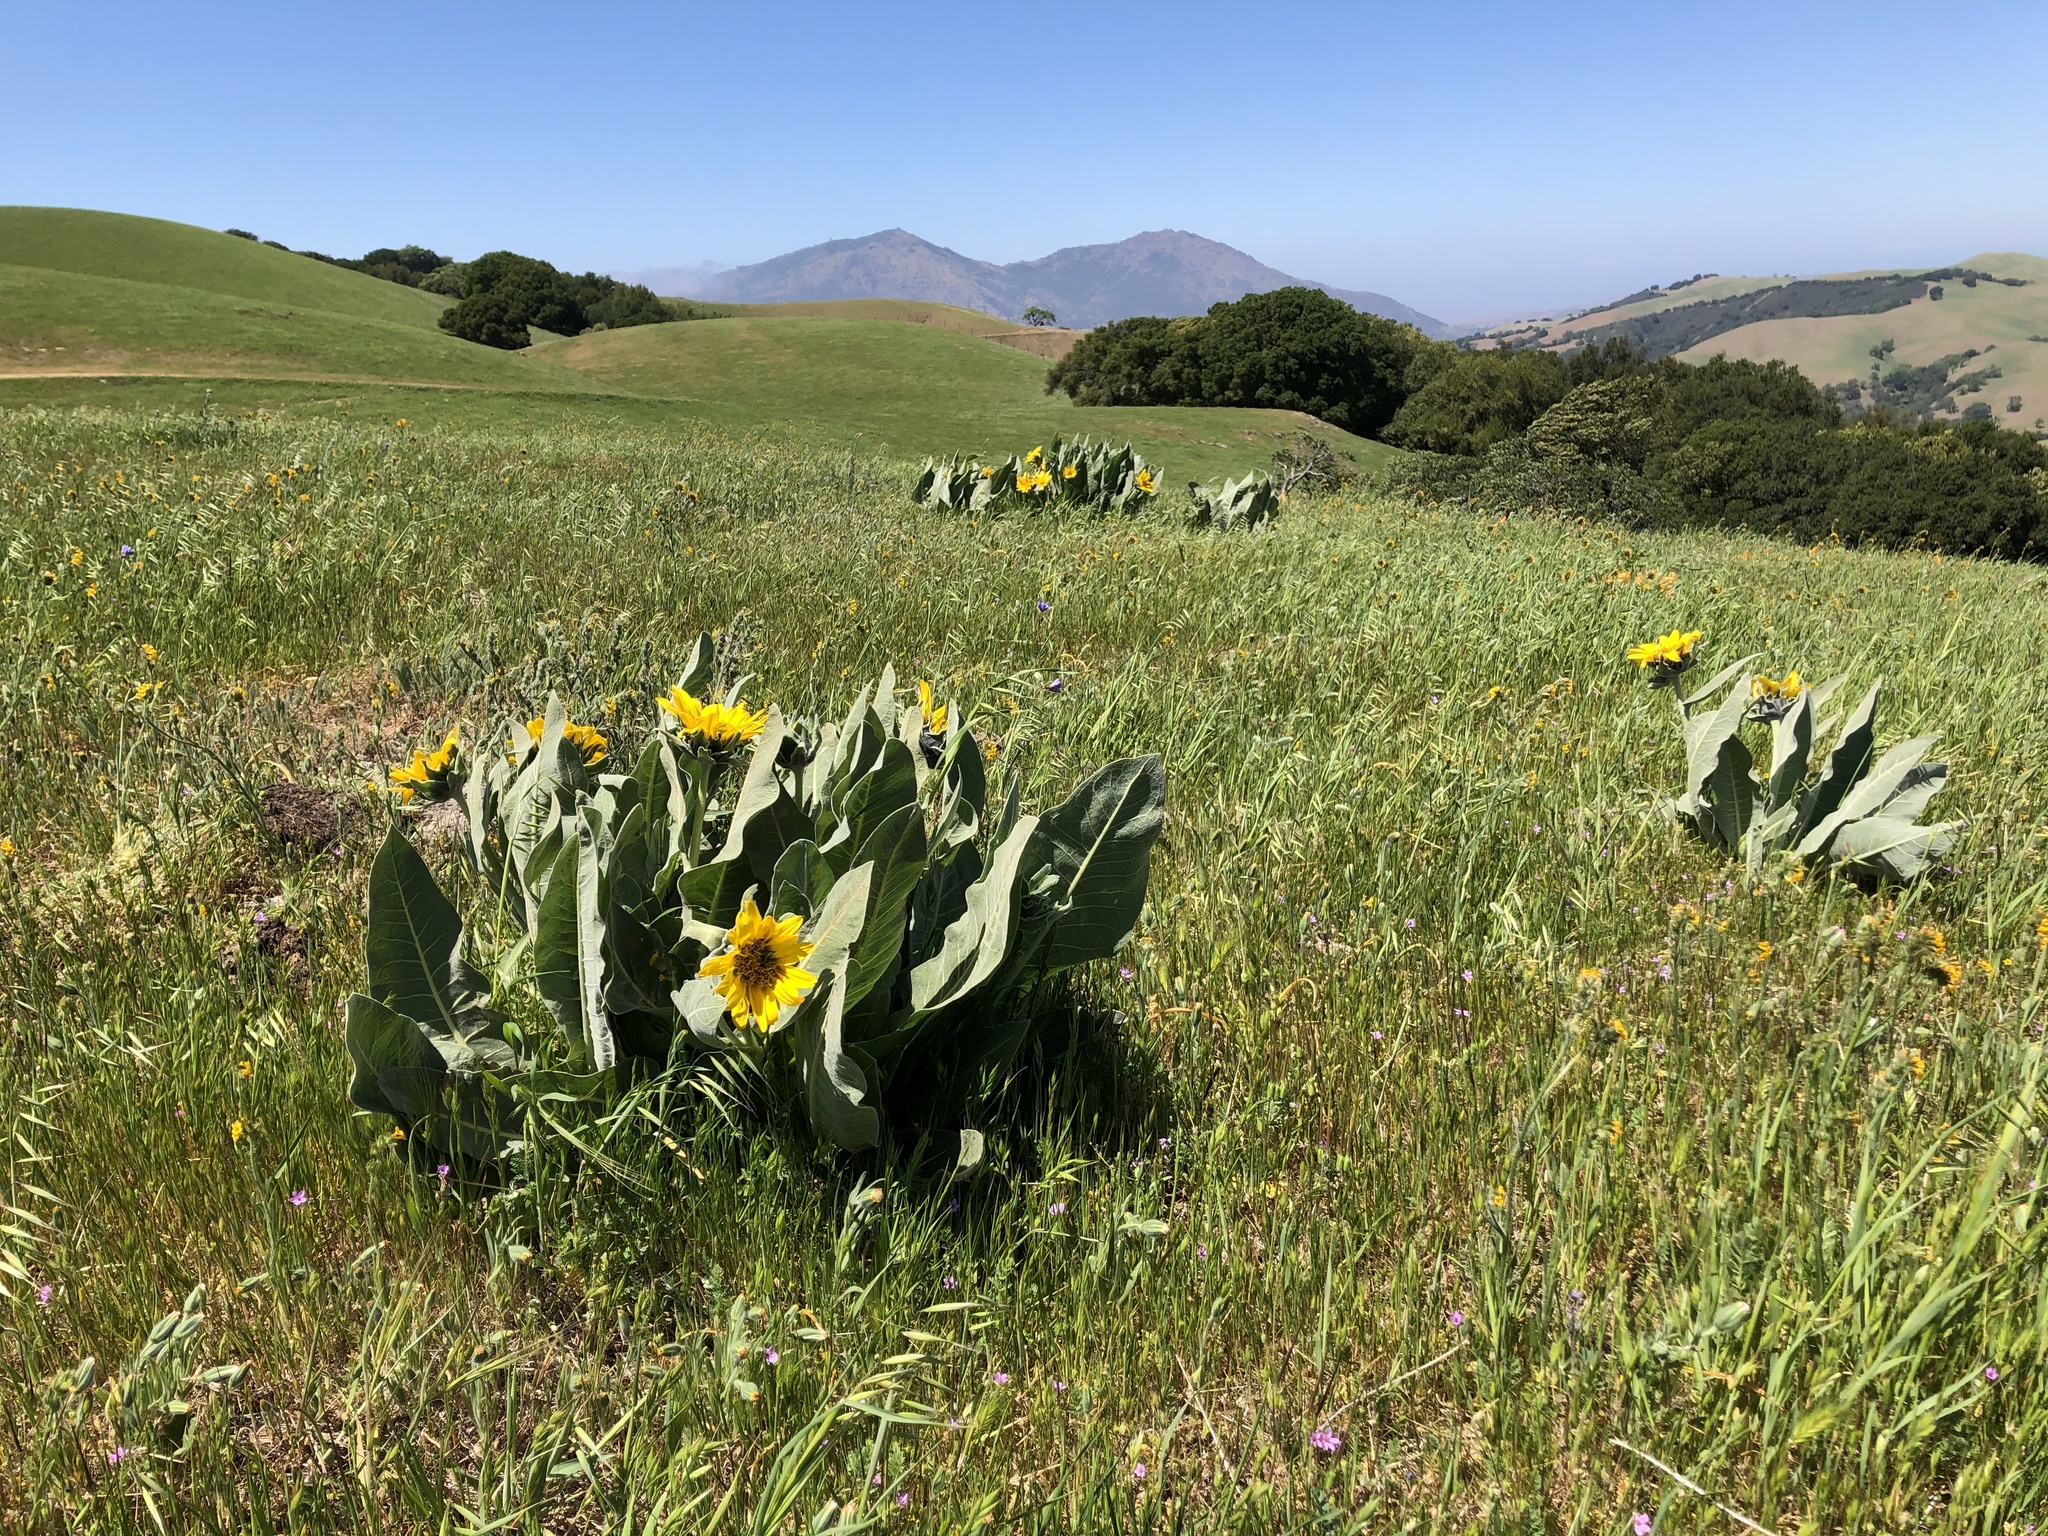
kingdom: Plantae
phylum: Tracheophyta
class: Magnoliopsida
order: Asterales
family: Asteraceae
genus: Wyethia
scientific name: Wyethia helenioides
